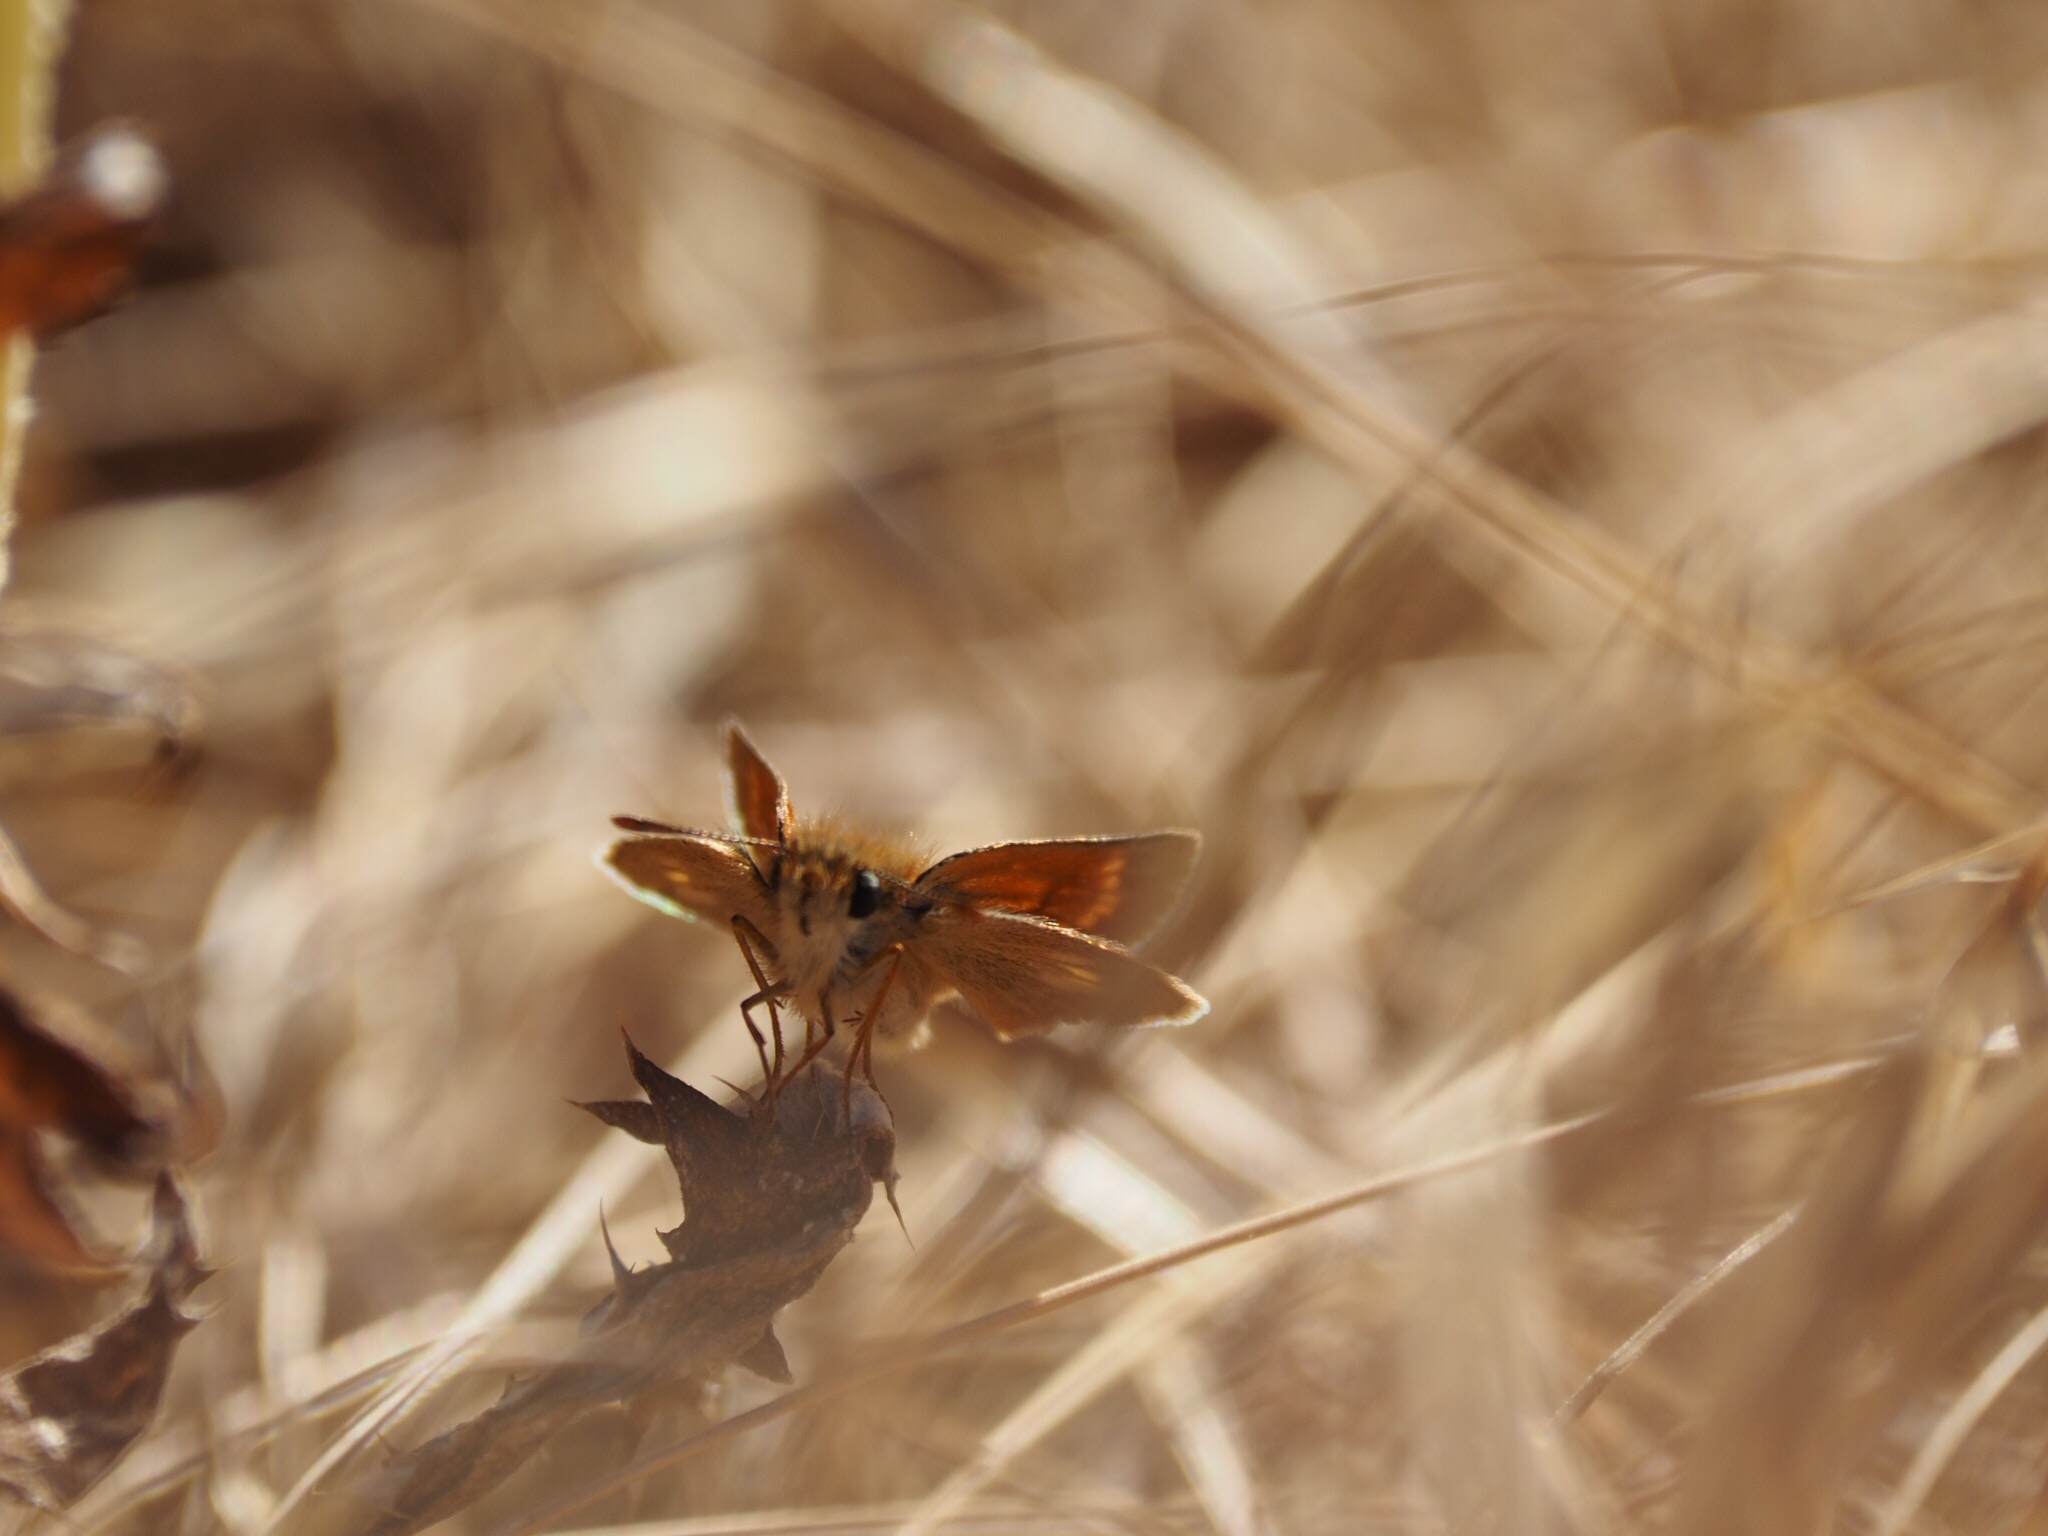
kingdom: Animalia
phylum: Arthropoda
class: Insecta
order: Lepidoptera
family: Hesperiidae
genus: Thymelicus
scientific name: Thymelicus acteon
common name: Lulworth skipper
